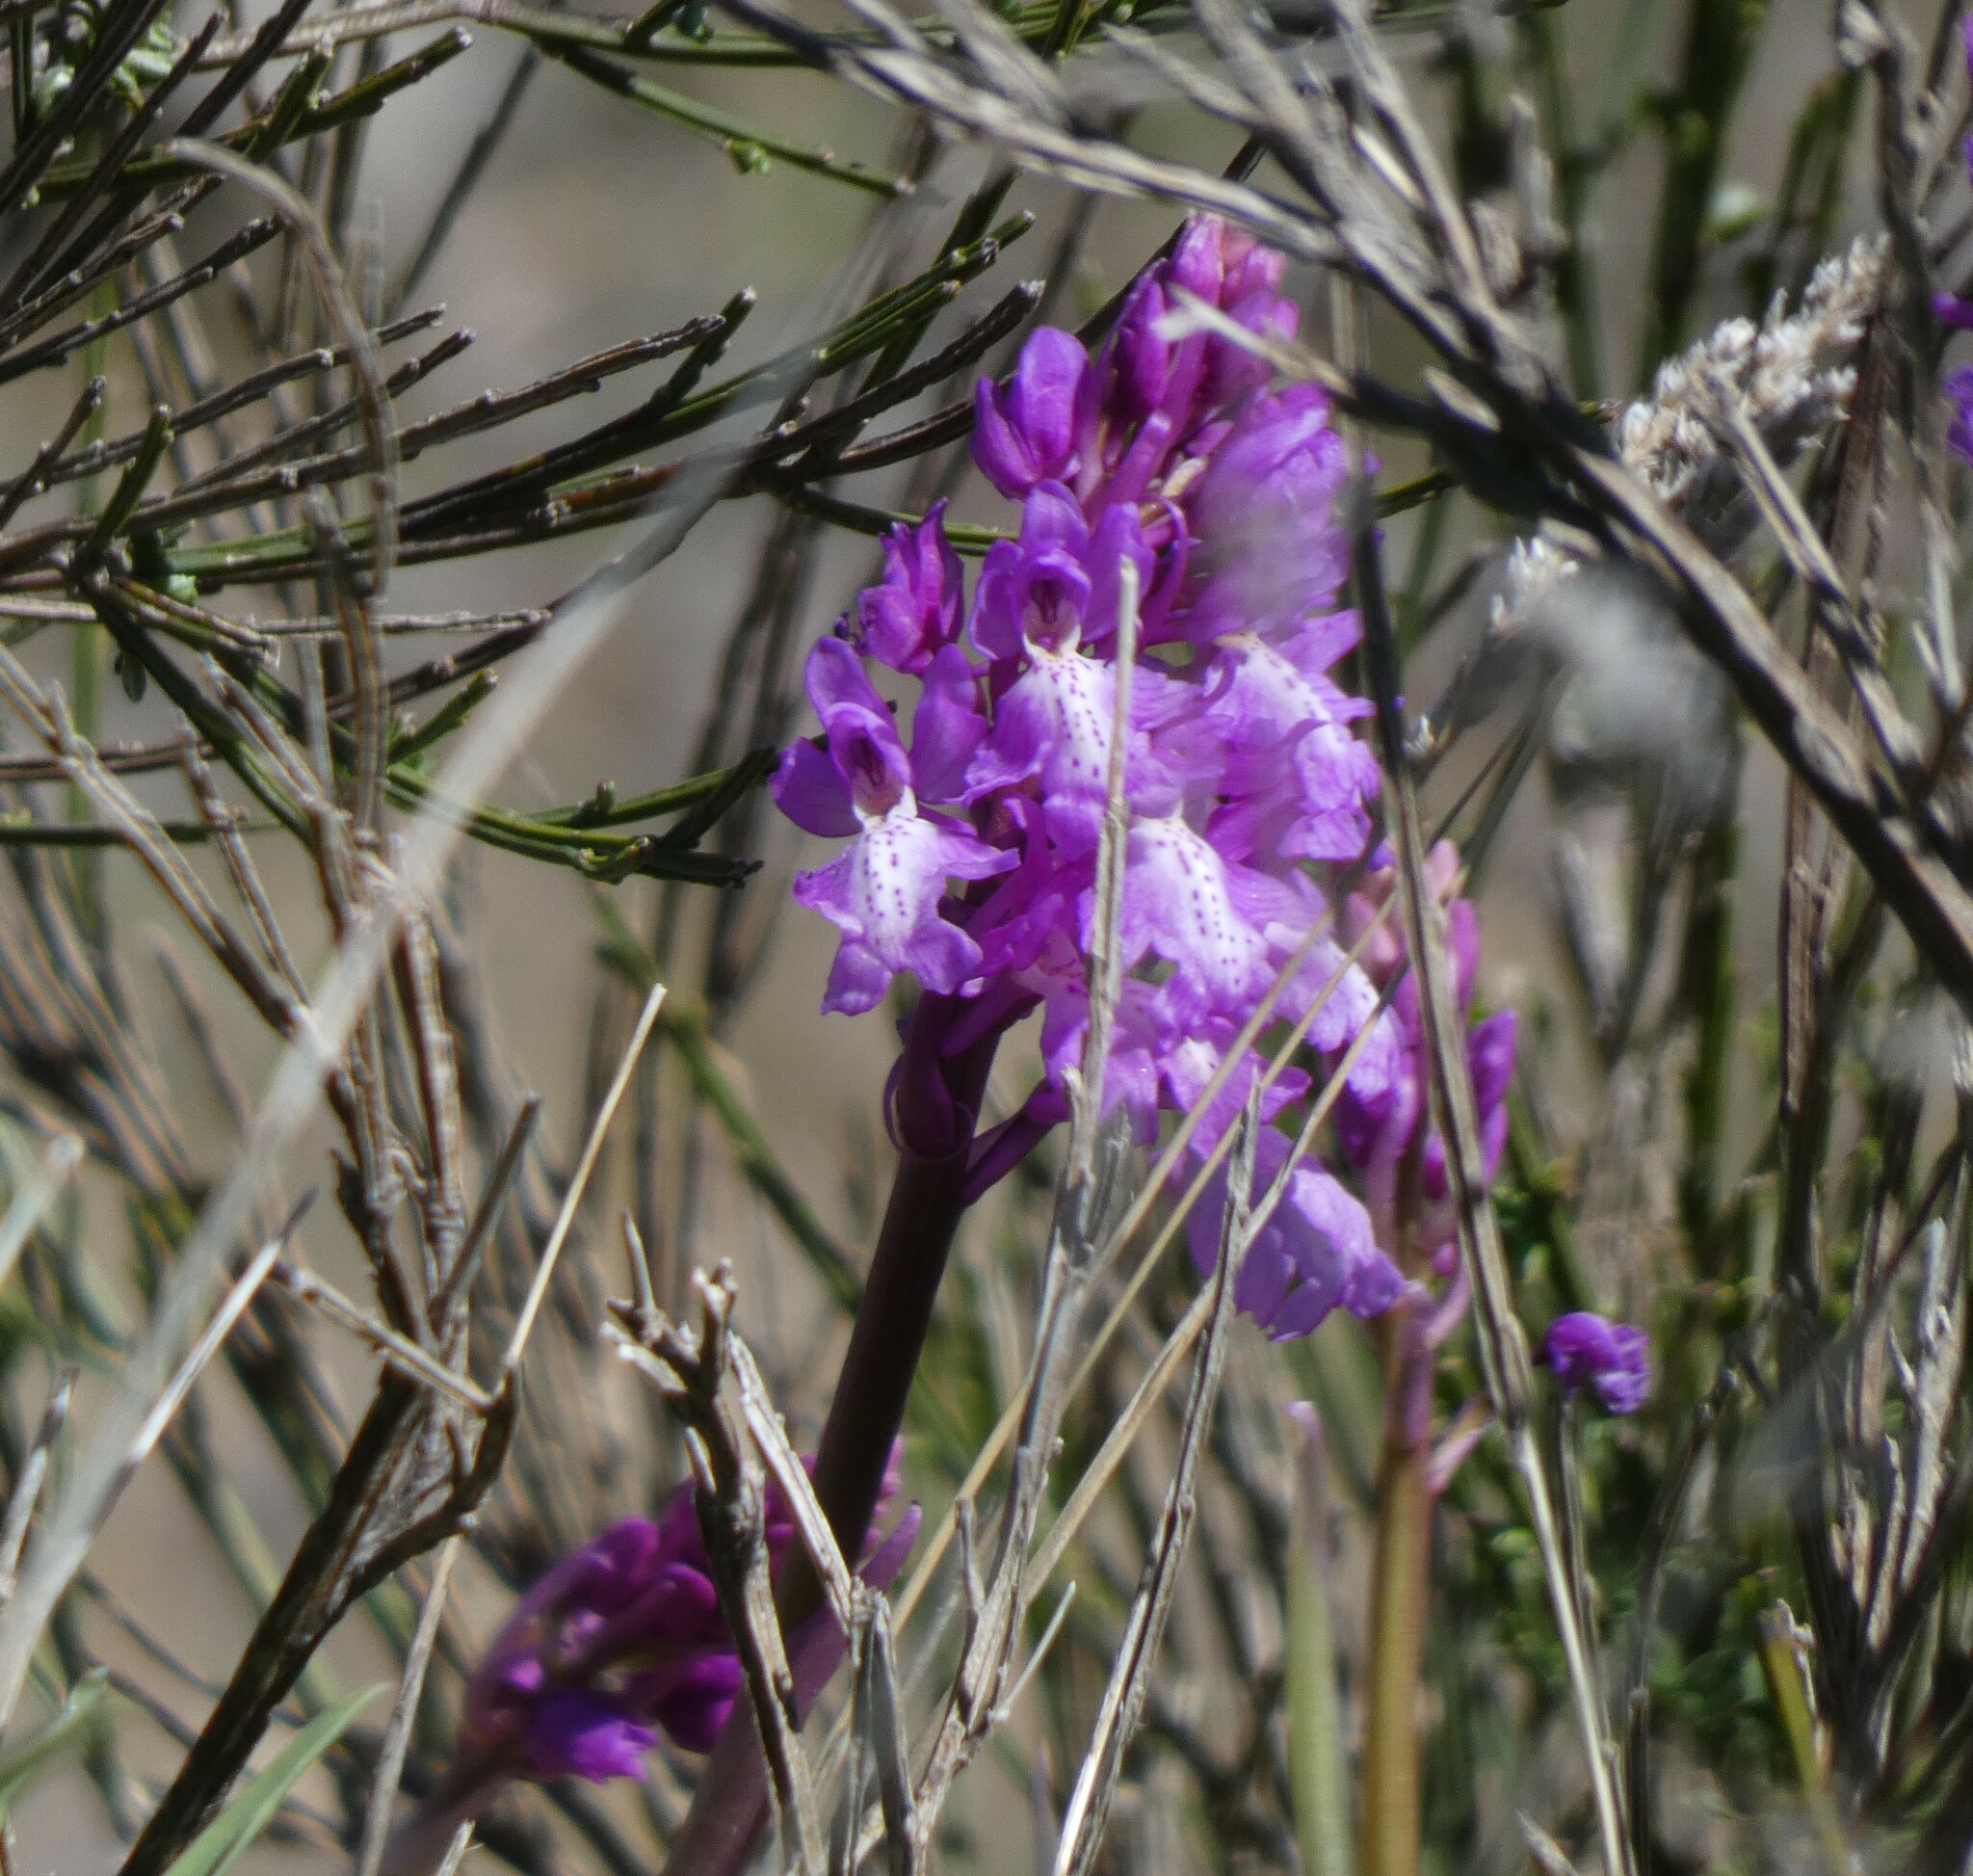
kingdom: Plantae
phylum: Tracheophyta
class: Liliopsida
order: Asparagales
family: Orchidaceae
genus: Orchis
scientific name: Orchis mascula
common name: Early-purple orchid
